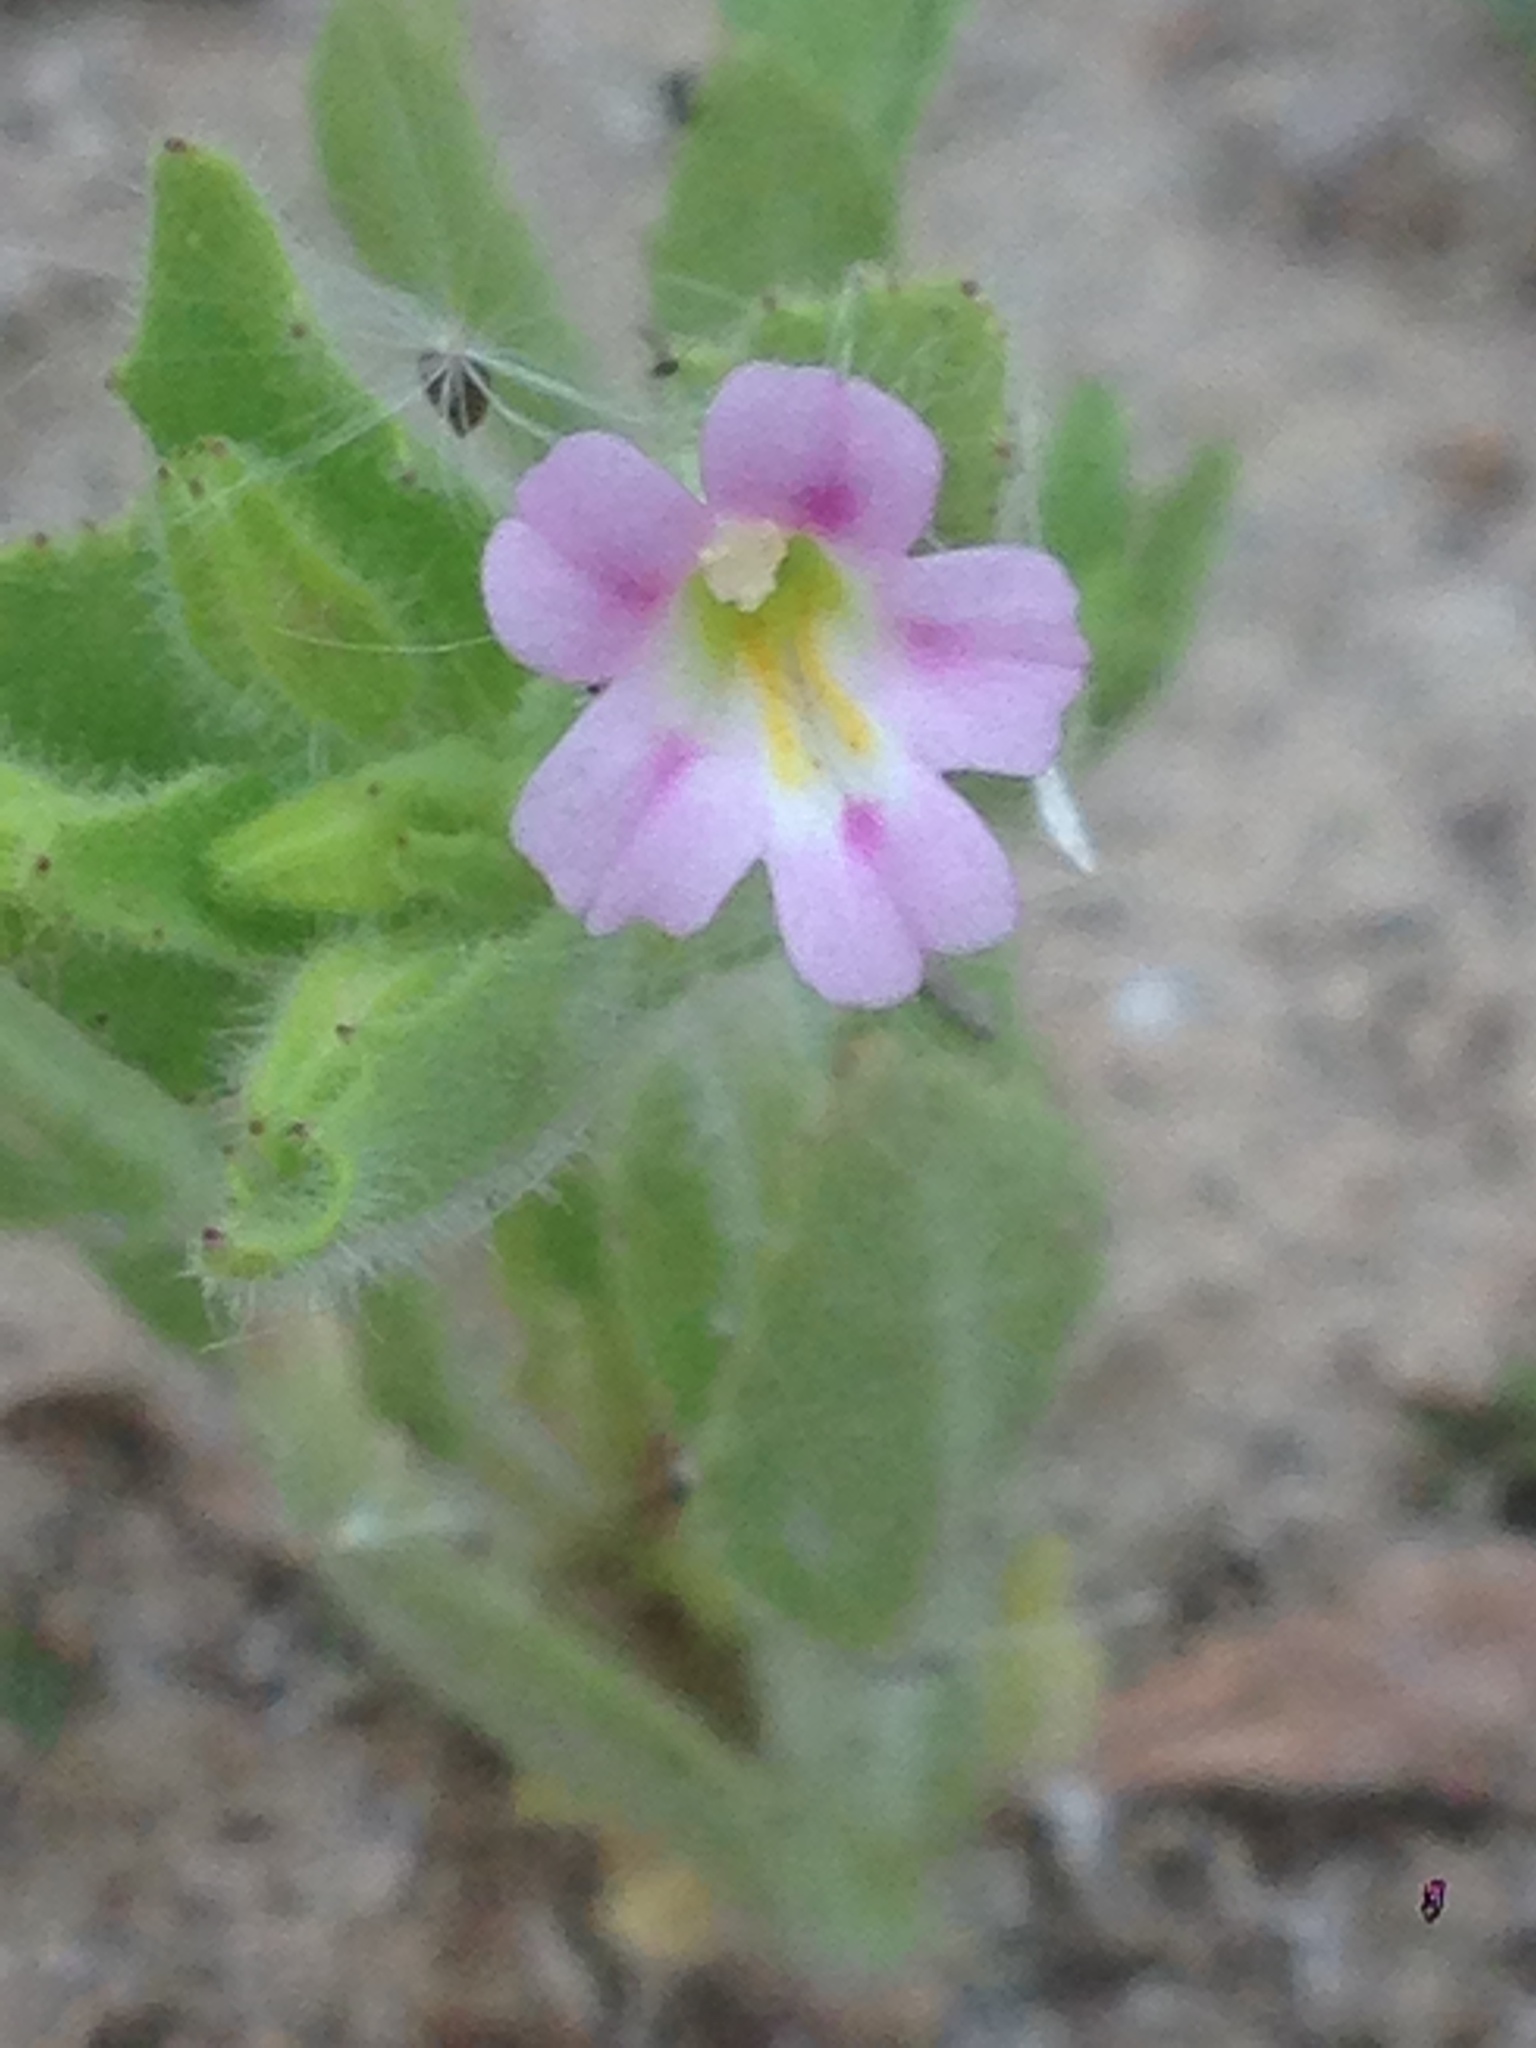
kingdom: Plantae
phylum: Tracheophyta
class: Magnoliopsida
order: Lamiales
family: Phrymaceae
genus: Erythranthe
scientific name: Erythranthe parishii
